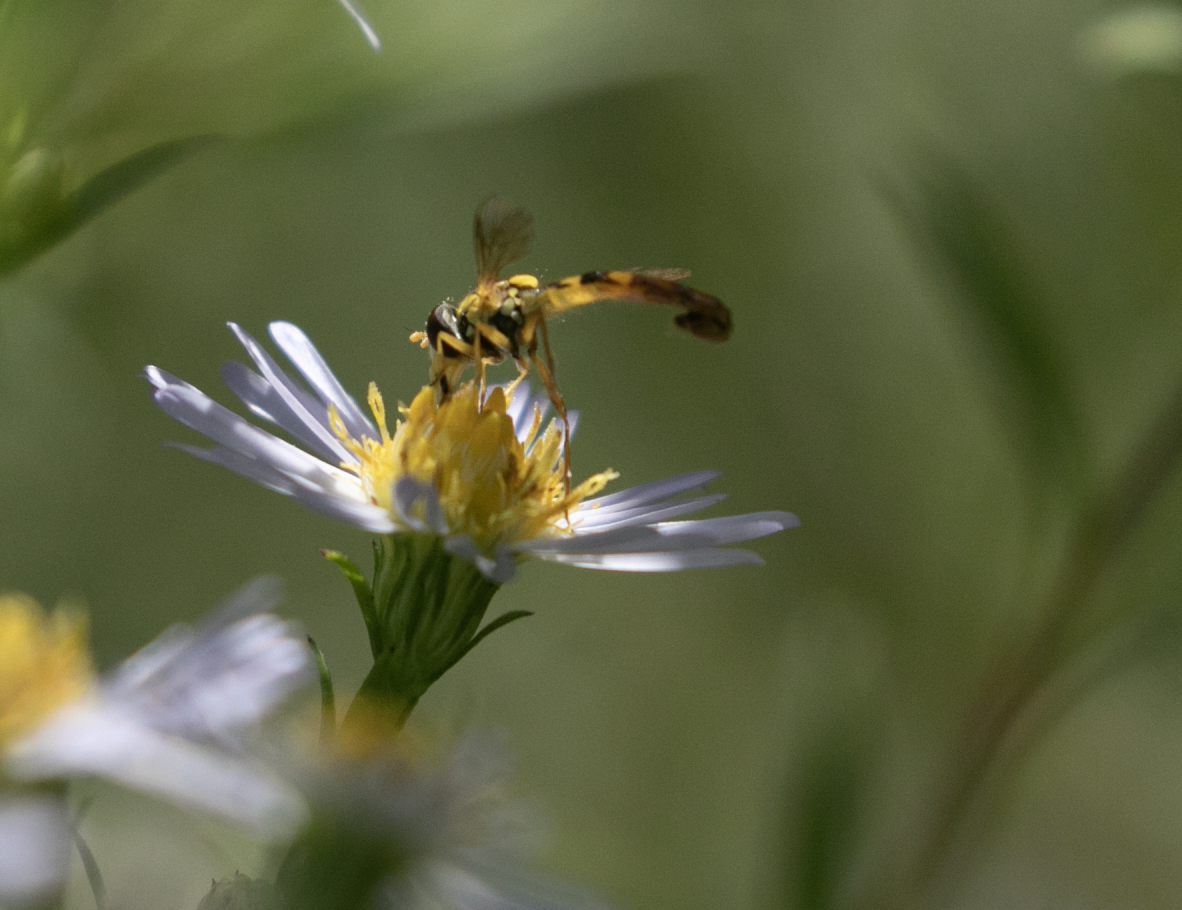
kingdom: Animalia
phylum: Arthropoda
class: Insecta
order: Diptera
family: Syrphidae
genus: Sphaerophoria
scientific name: Sphaerophoria scripta
